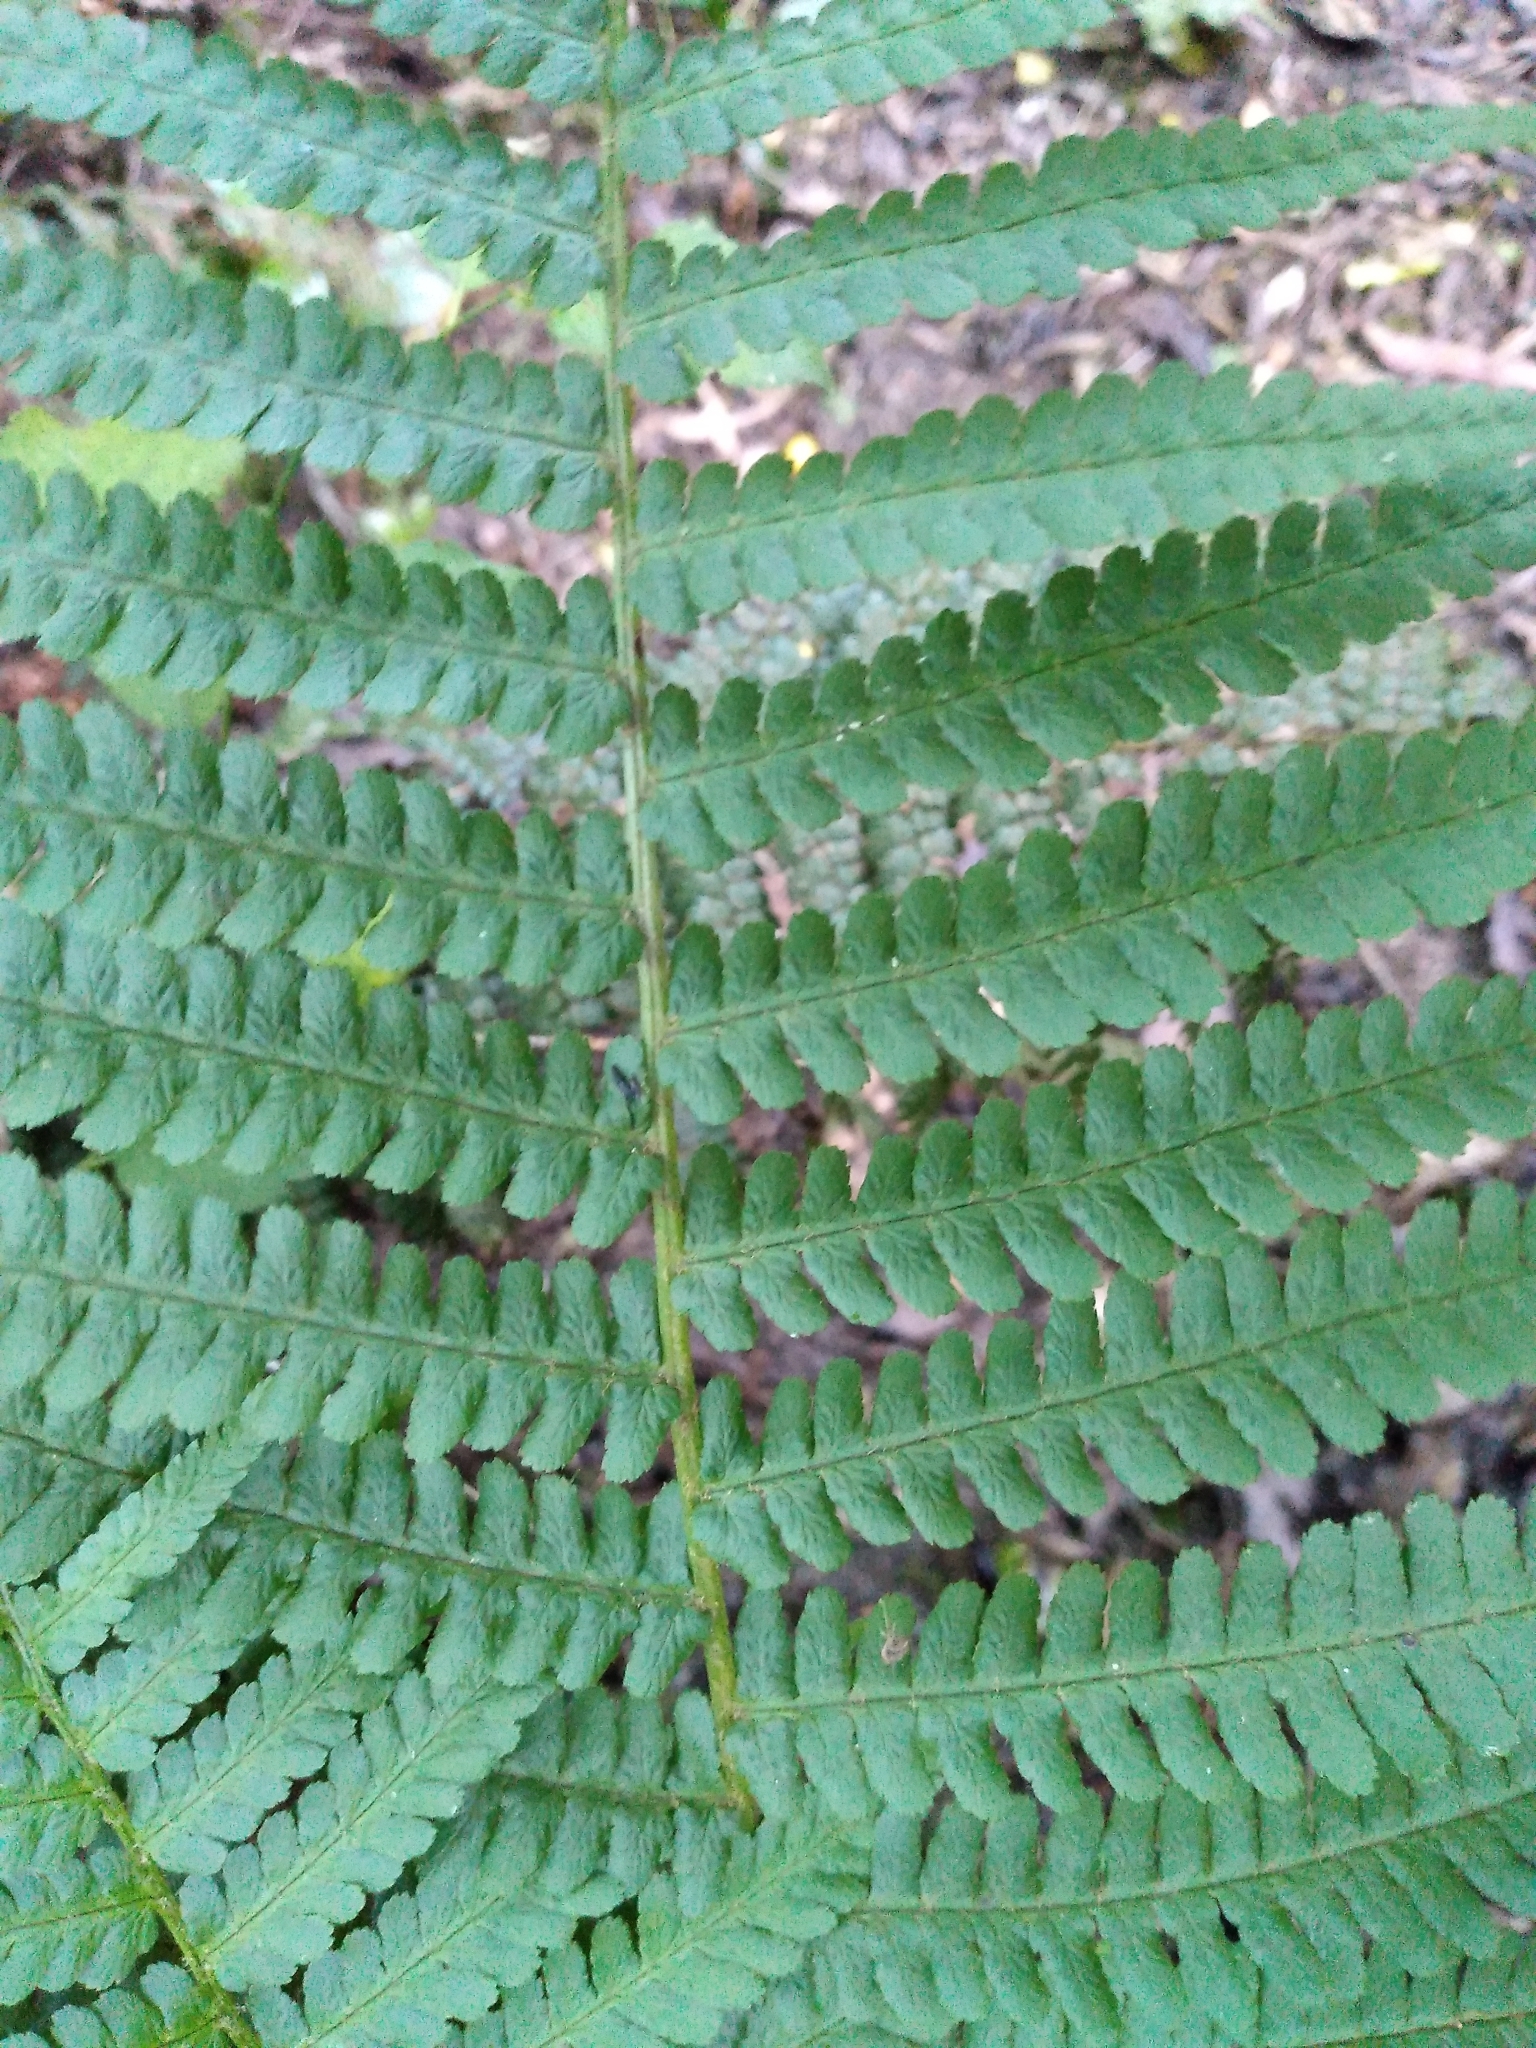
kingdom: Plantae
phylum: Tracheophyta
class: Polypodiopsida
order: Polypodiales
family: Dryopteridaceae
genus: Dryopteris
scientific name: Dryopteris filix-mas
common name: Male fern
